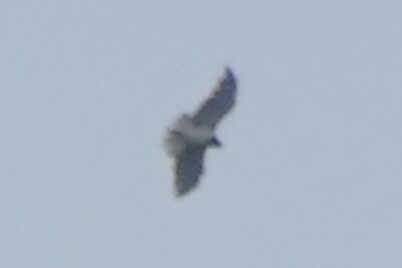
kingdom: Animalia
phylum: Chordata
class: Aves
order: Accipitriformes
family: Accipitridae
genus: Circaetus
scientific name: Circaetus gallicus
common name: Short-toed snake eagle
